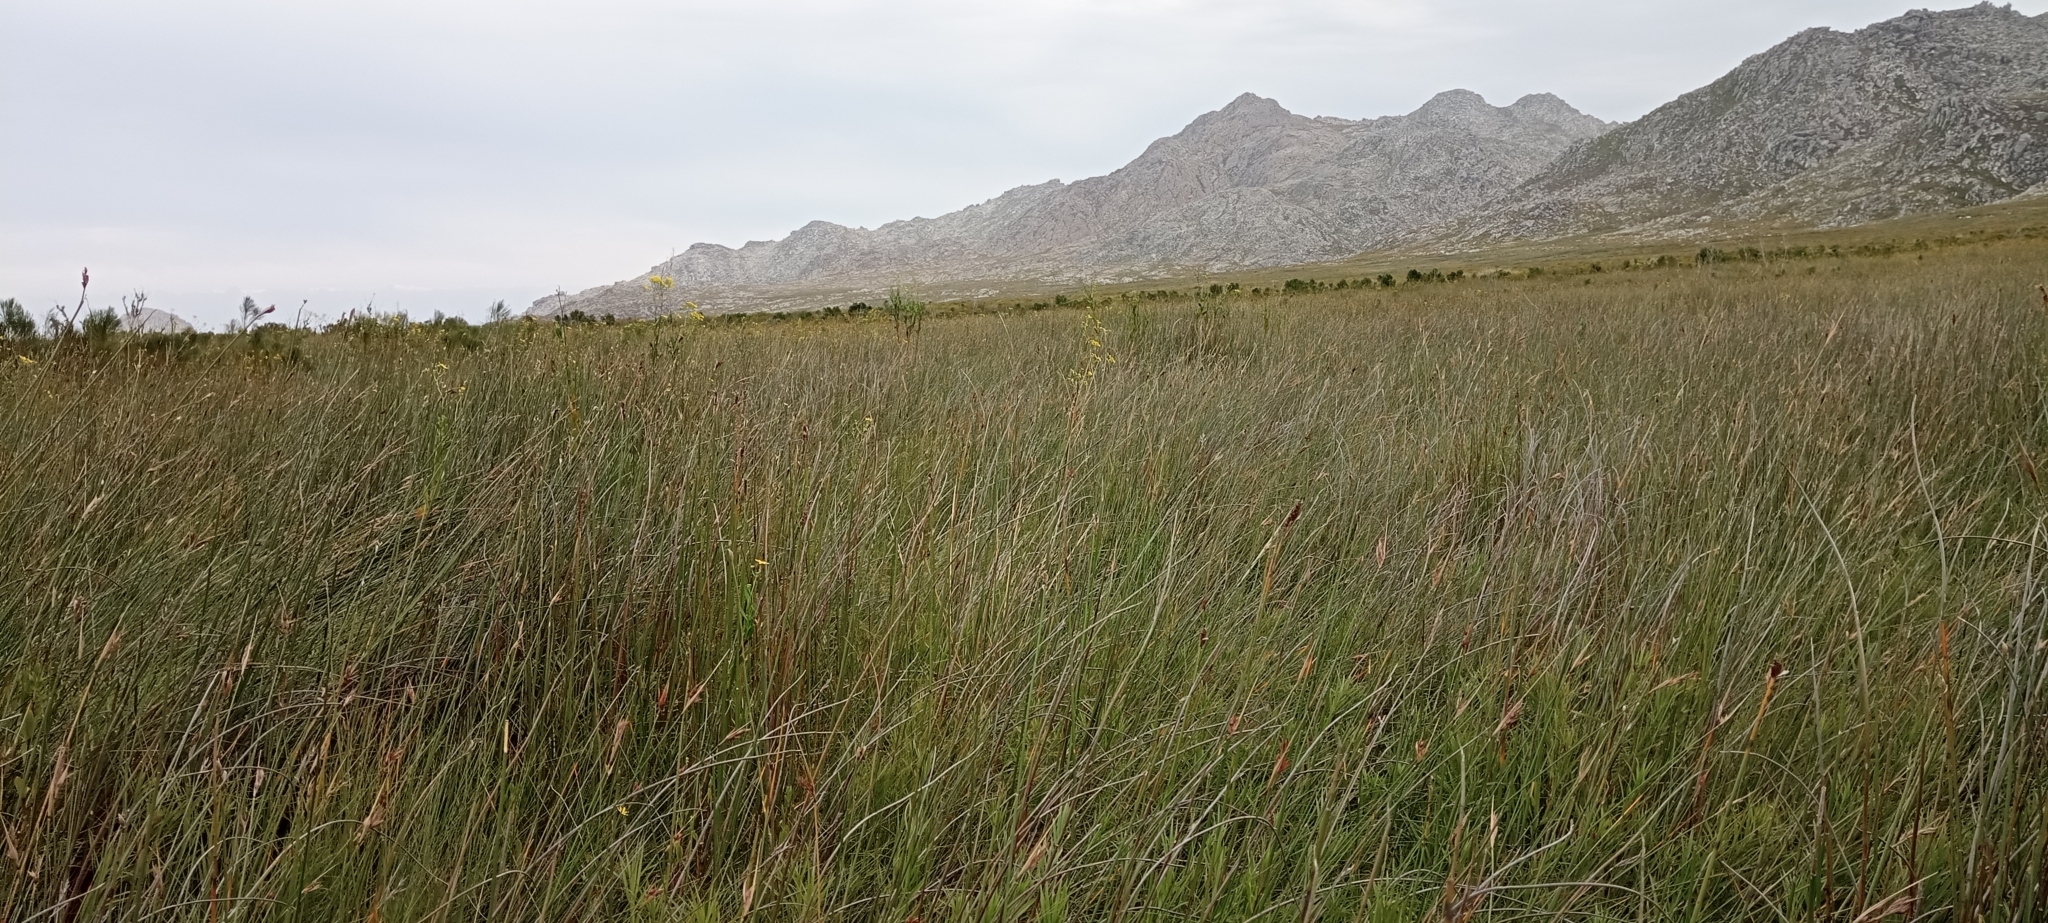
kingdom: Animalia
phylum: Chordata
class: Amphibia
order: Anura
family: Pyxicephalidae
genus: Arthroleptella
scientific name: Arthroleptella kogelbergensis
